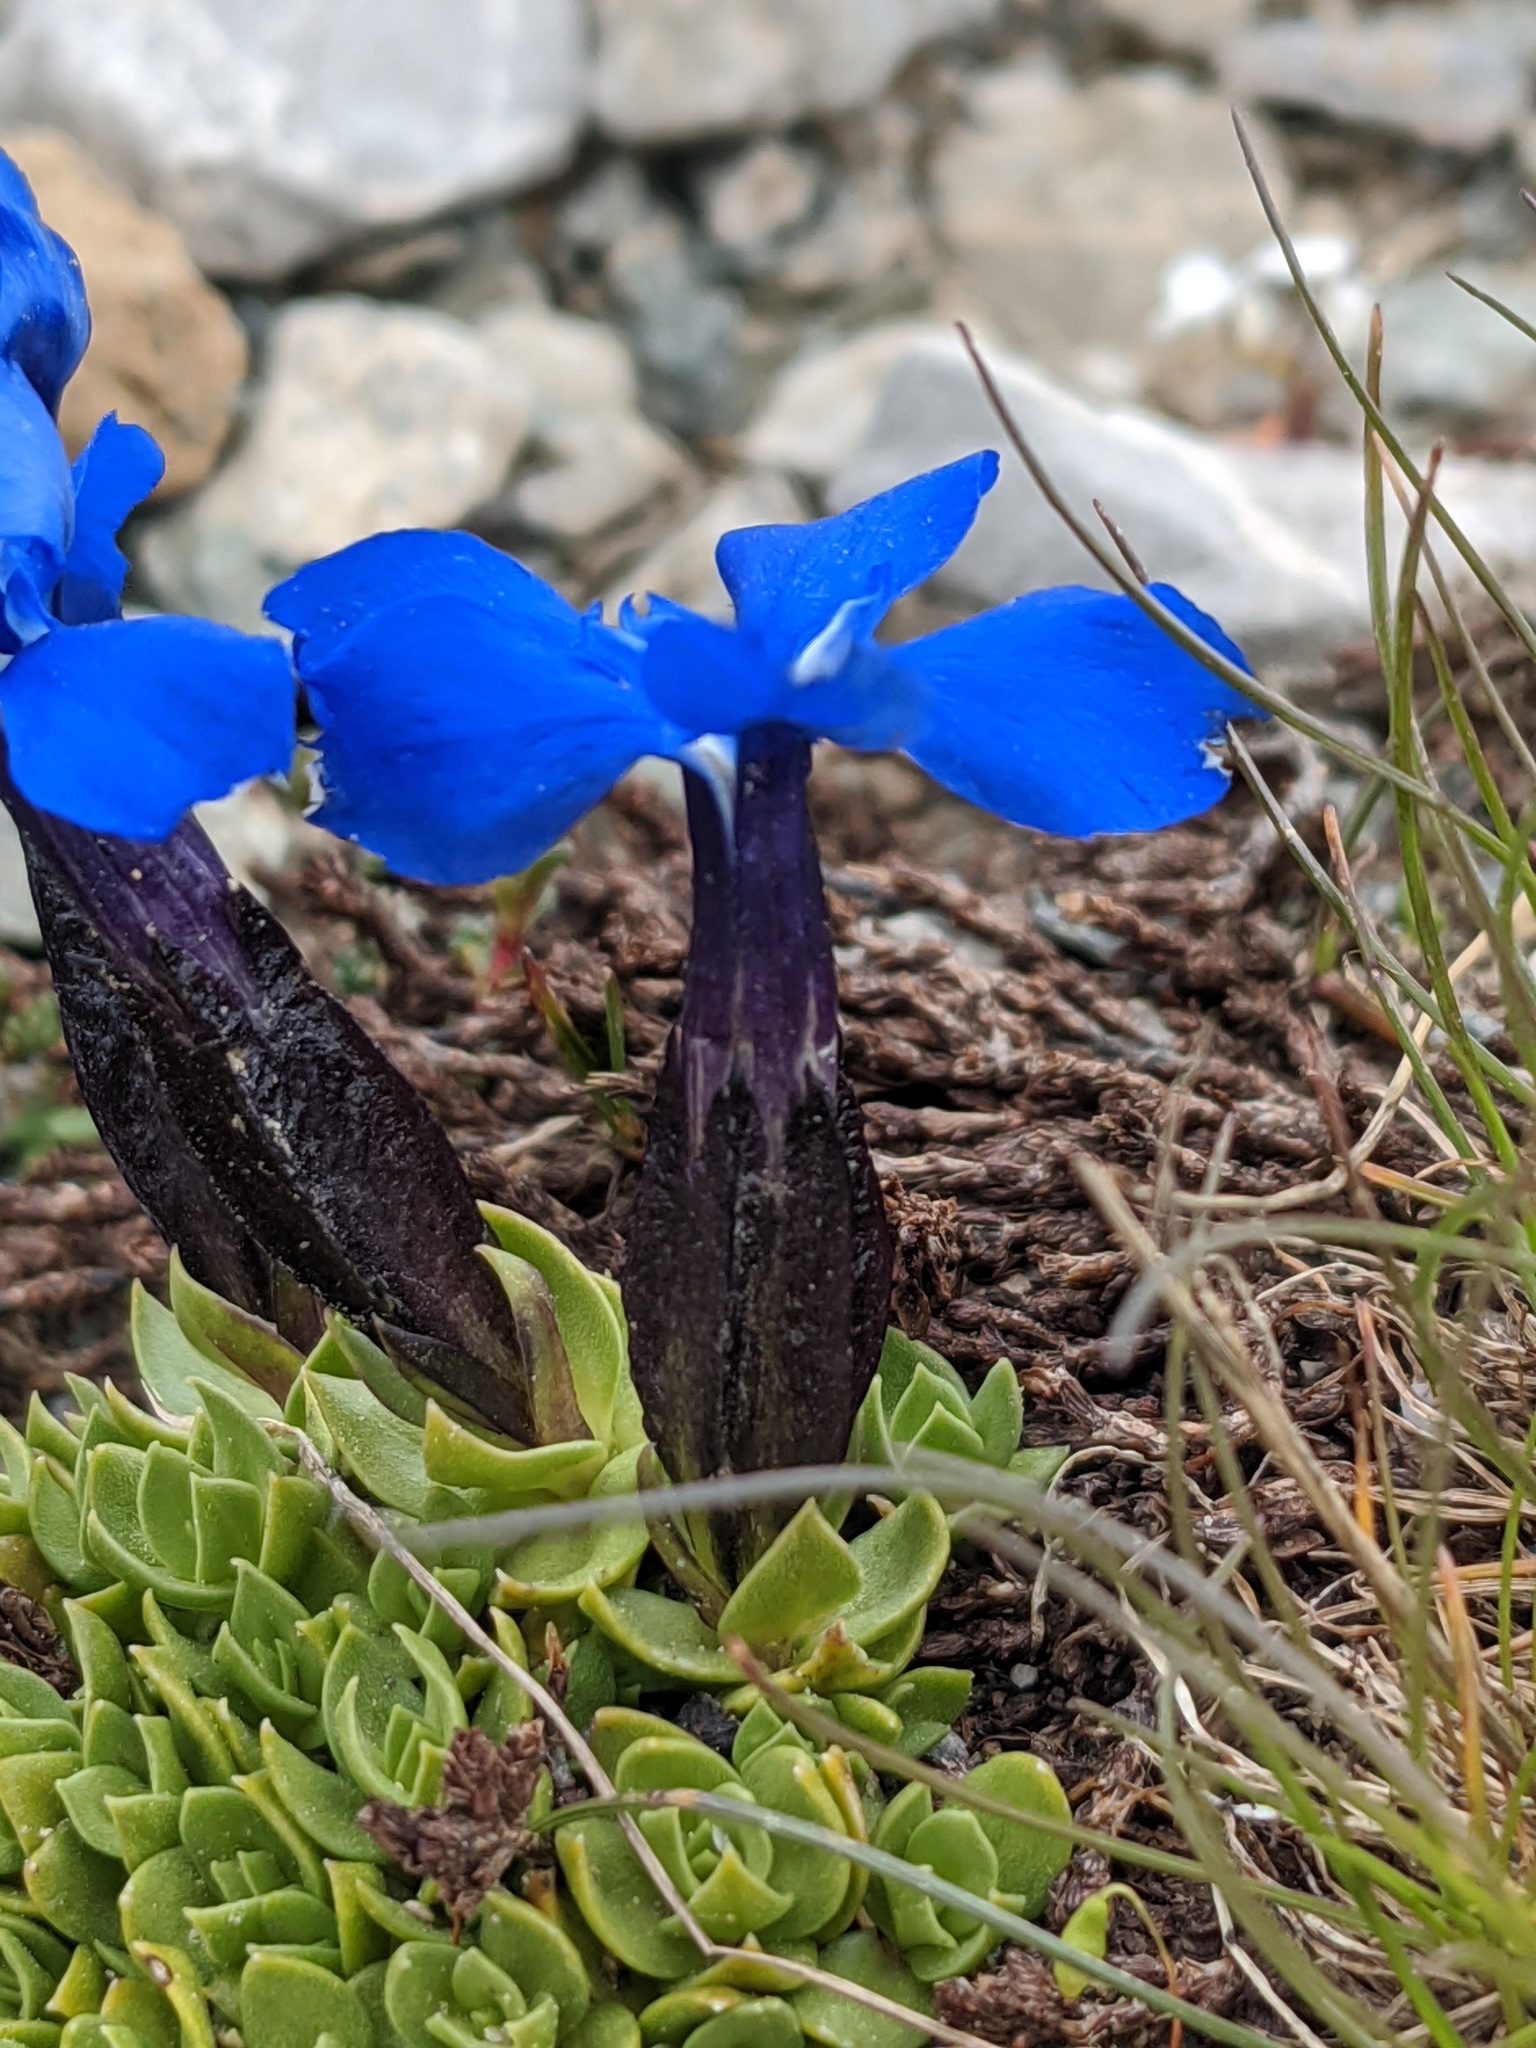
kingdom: Plantae
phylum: Tracheophyta
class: Magnoliopsida
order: Gentianales
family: Gentianaceae
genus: Gentiana
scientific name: Gentiana terglouensis
